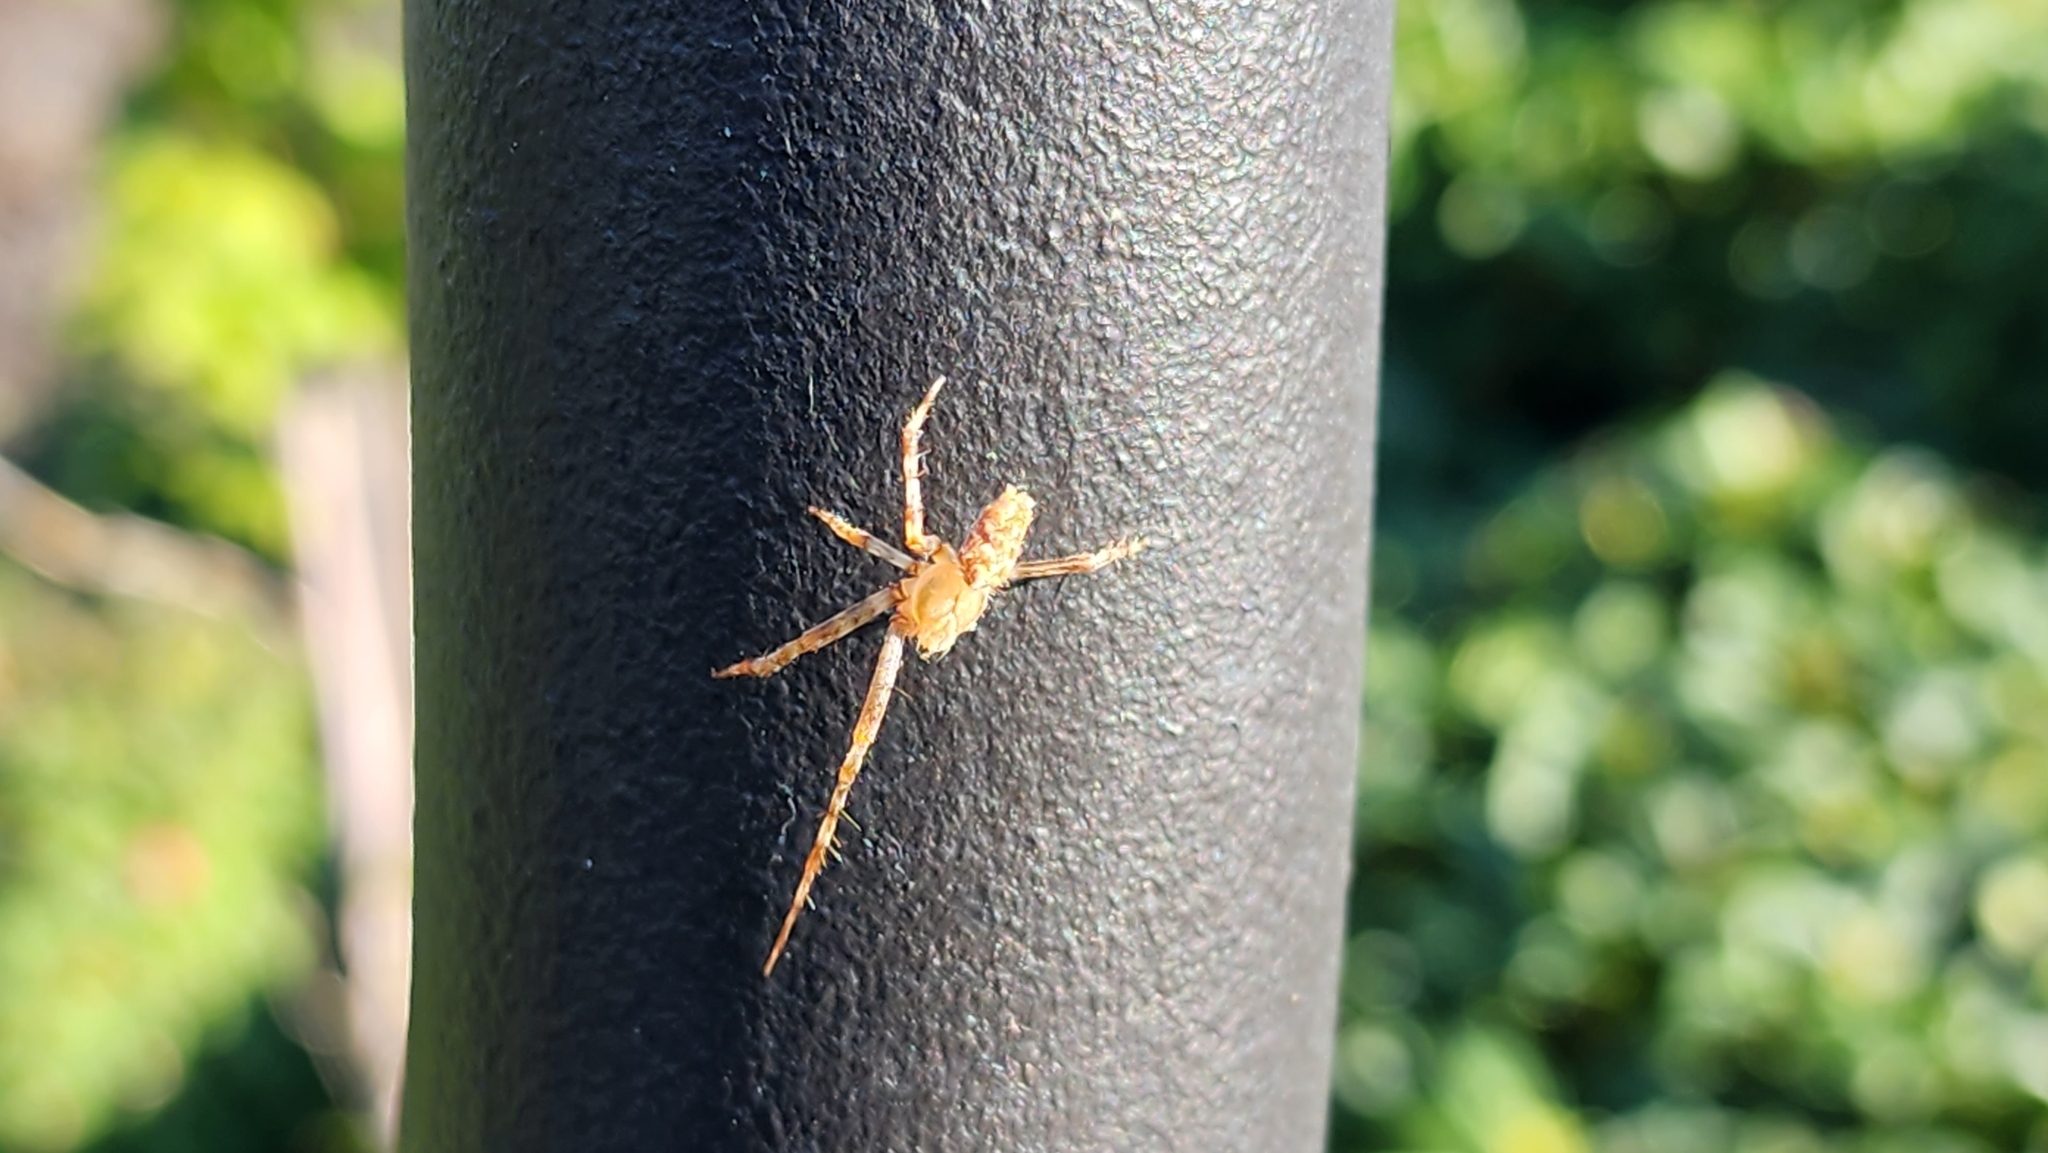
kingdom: Animalia
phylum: Arthropoda
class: Arachnida
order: Araneae
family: Araneidae
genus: Araneus
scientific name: Araneus diadematus
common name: Cross orbweaver
